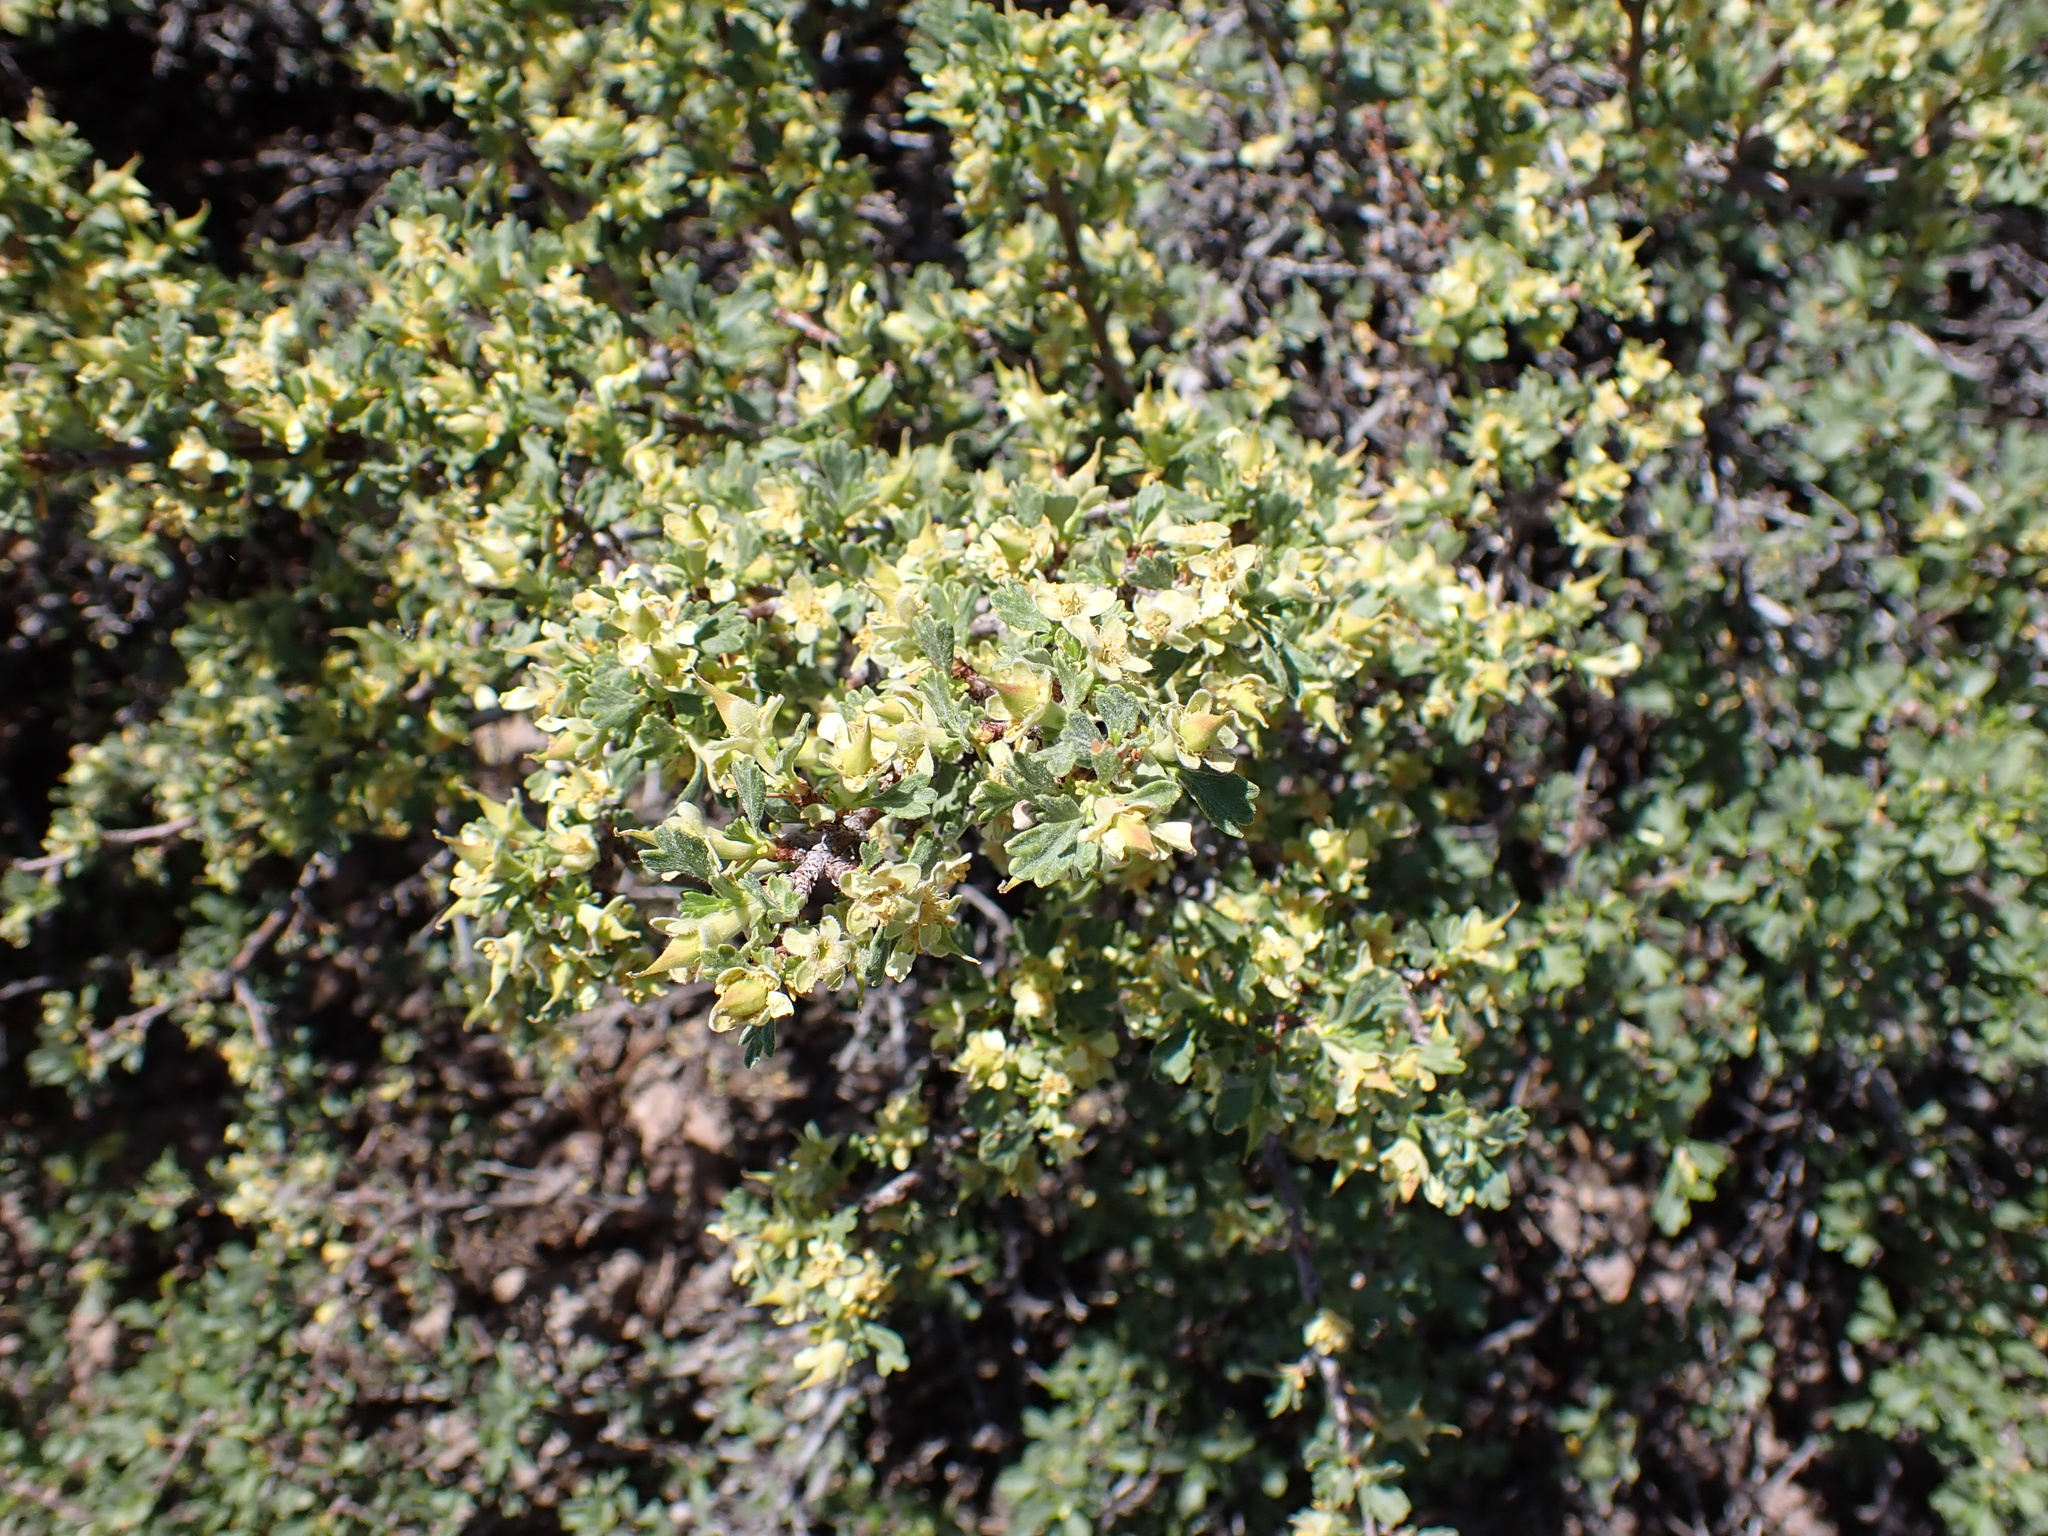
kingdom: Plantae
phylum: Tracheophyta
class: Magnoliopsida
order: Rosales
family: Rosaceae
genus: Purshia
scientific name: Purshia tridentata
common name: Antelope bitterbrush
